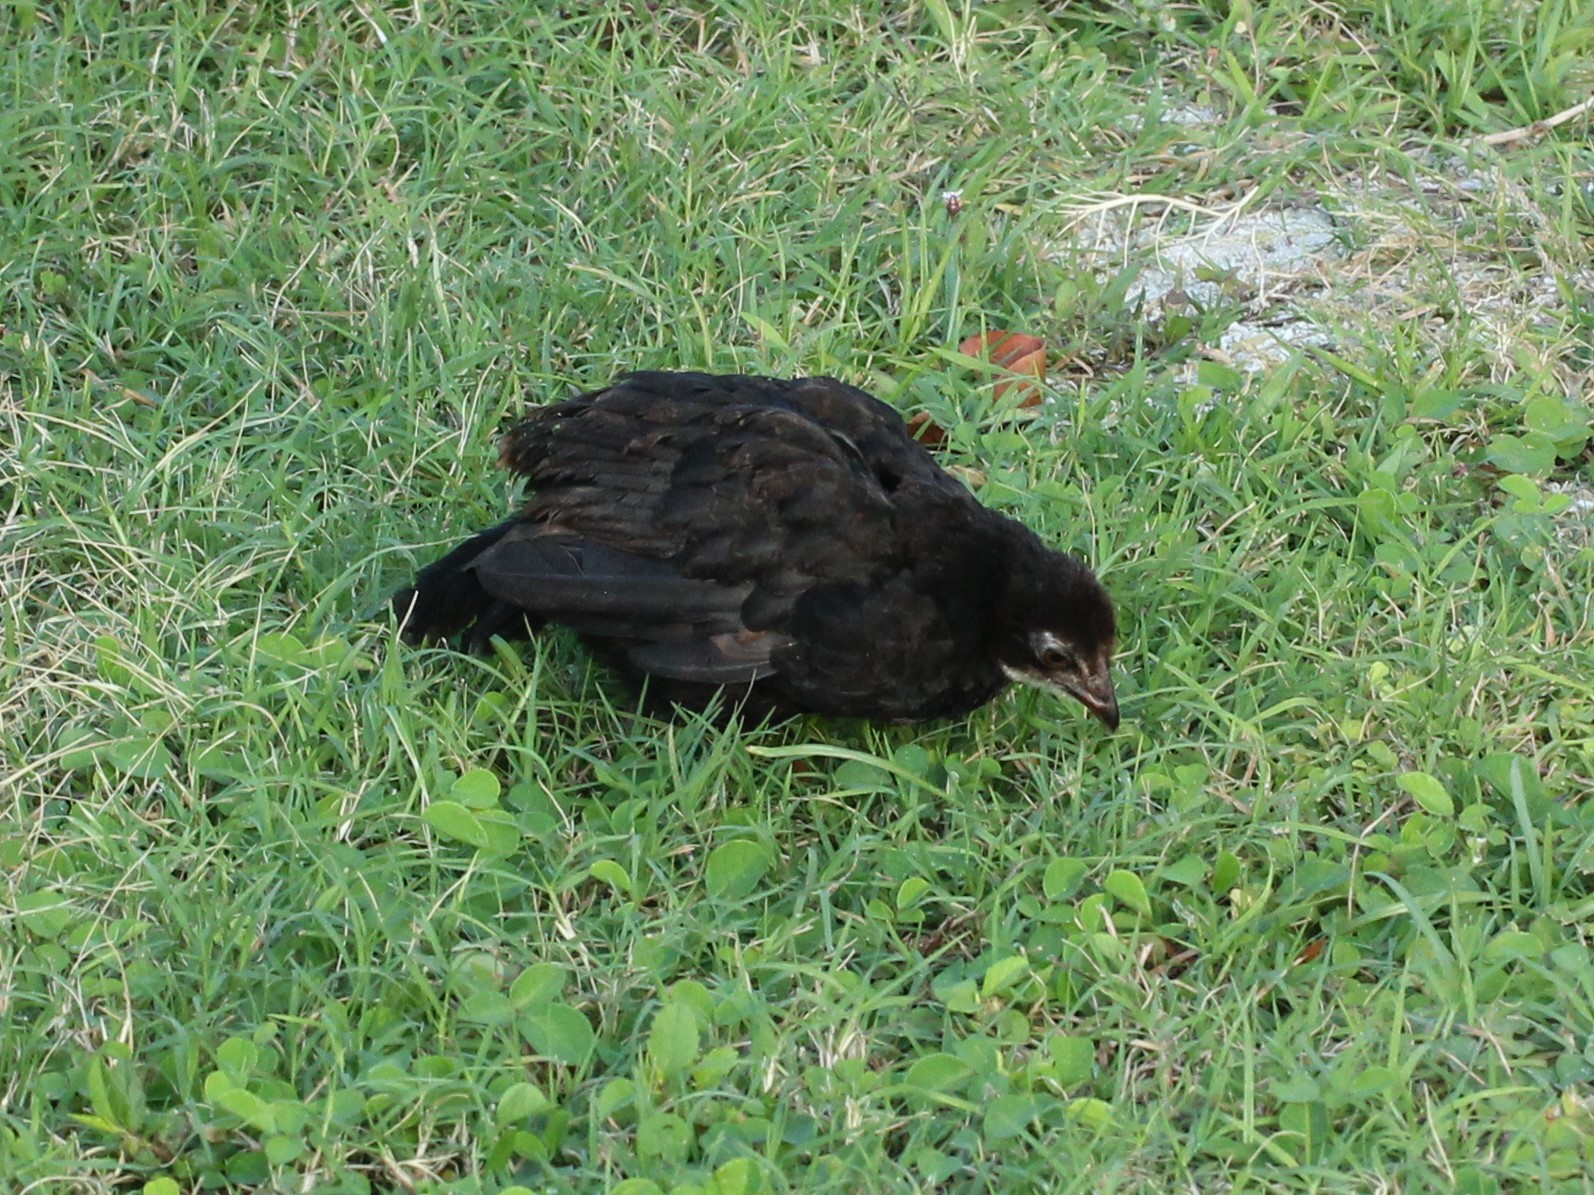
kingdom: Animalia
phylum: Chordata
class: Aves
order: Galliformes
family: Phasianidae
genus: Gallus
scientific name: Gallus gallus
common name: Red junglefowl
